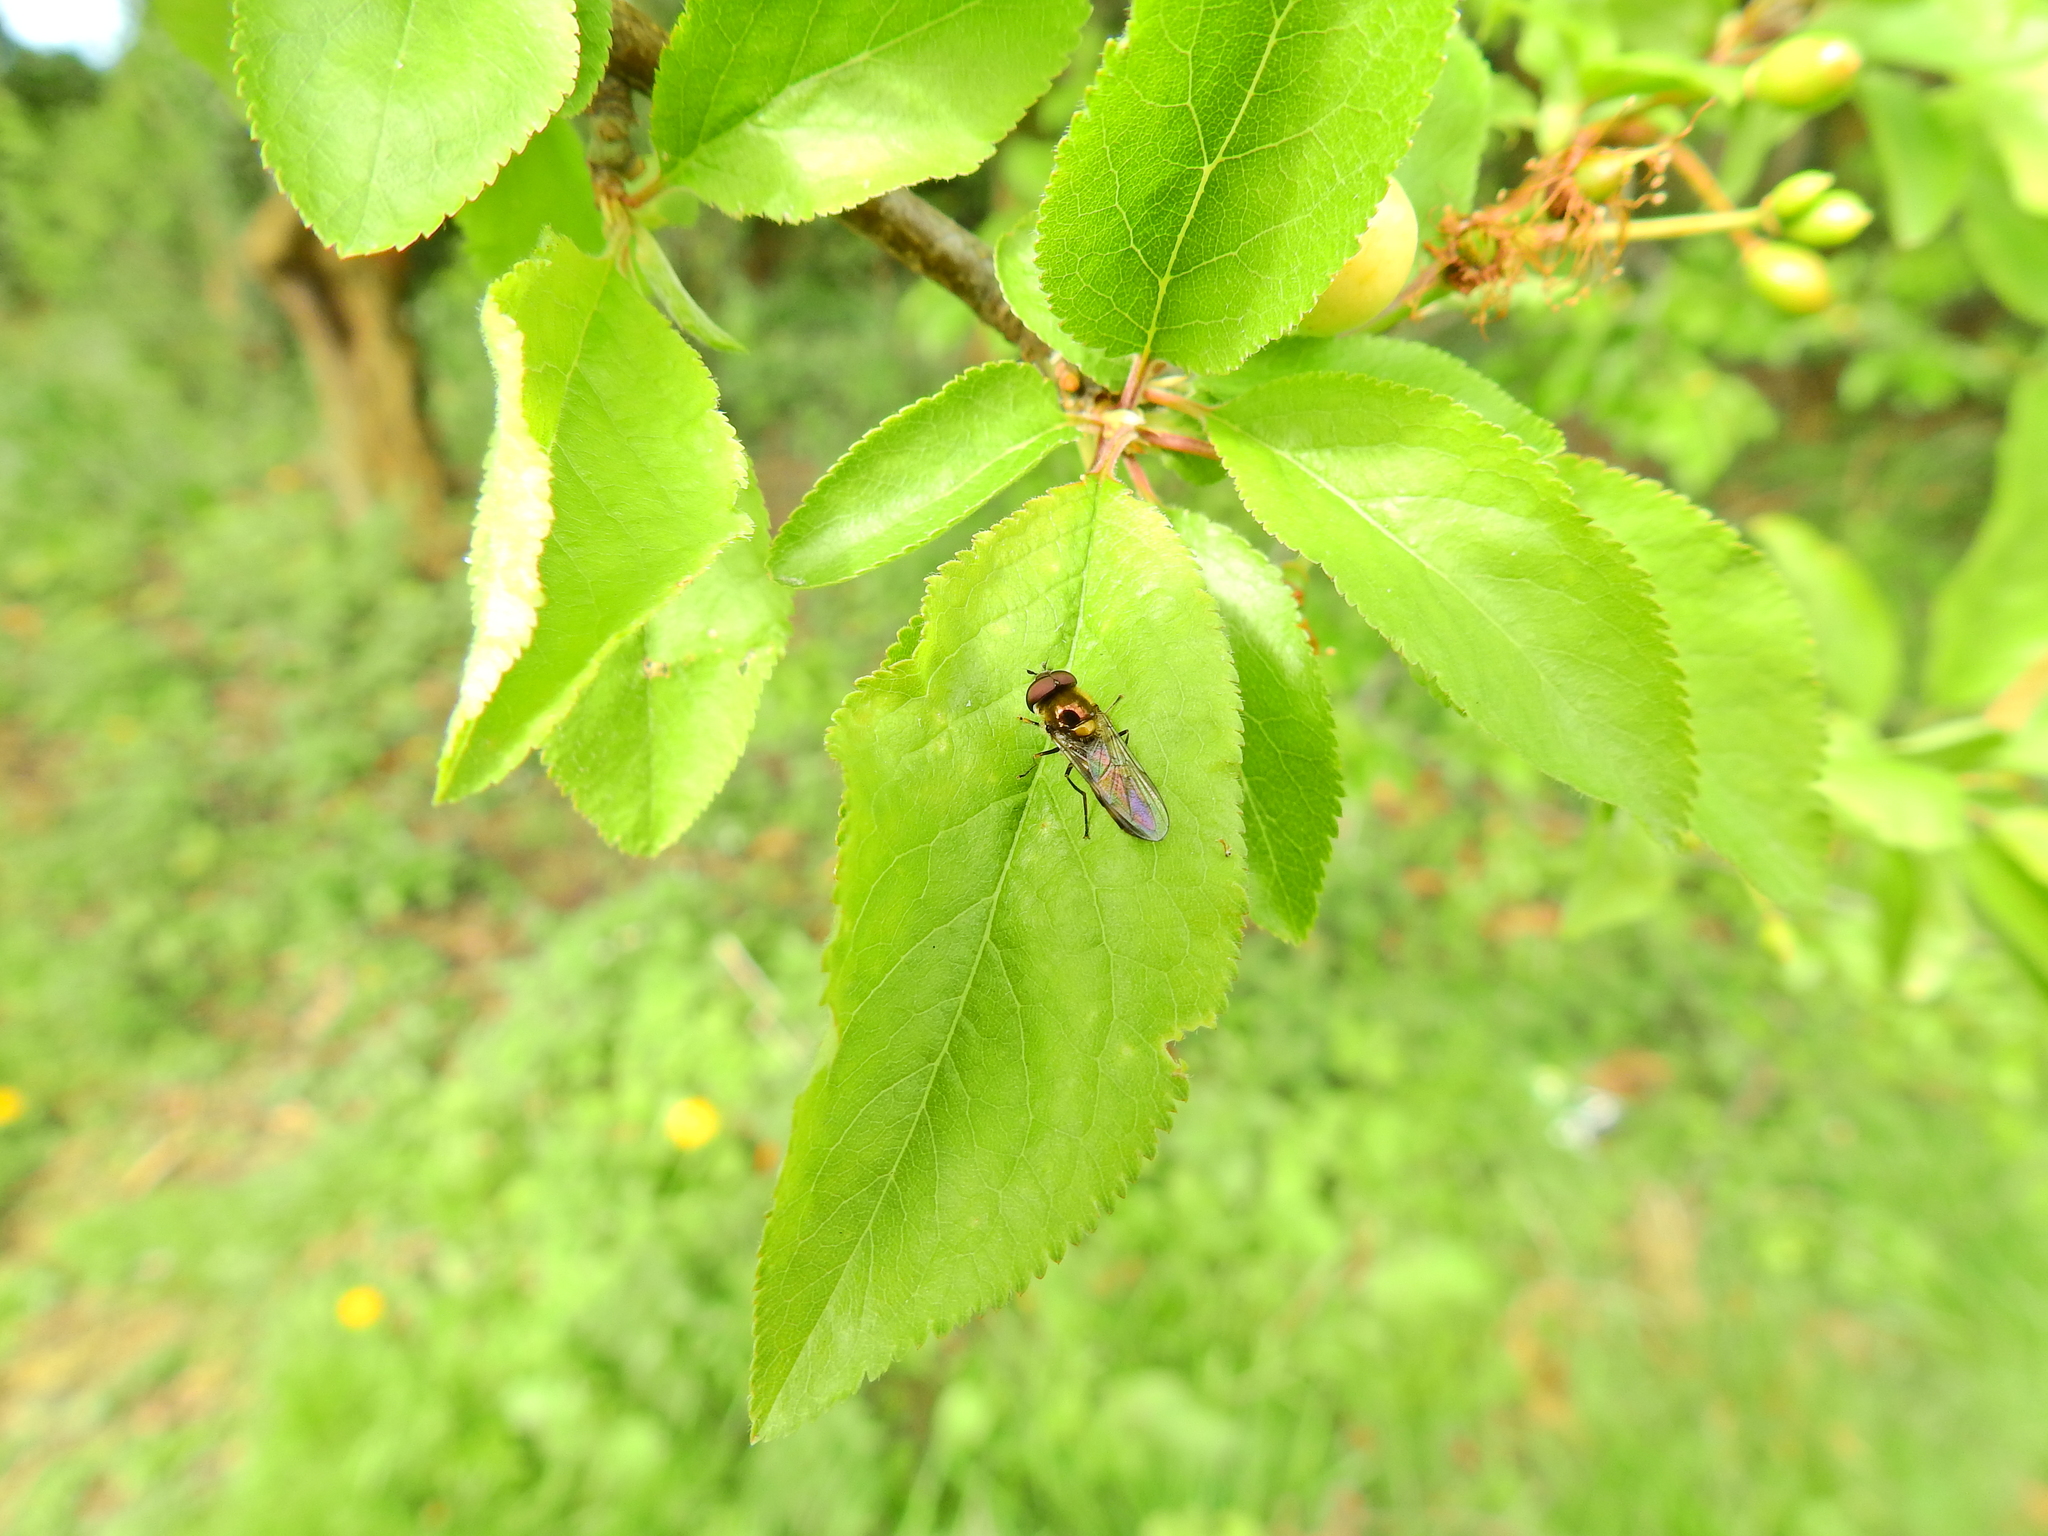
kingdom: Animalia
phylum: Arthropoda
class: Insecta
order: Diptera
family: Syrphidae
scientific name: Syrphidae
